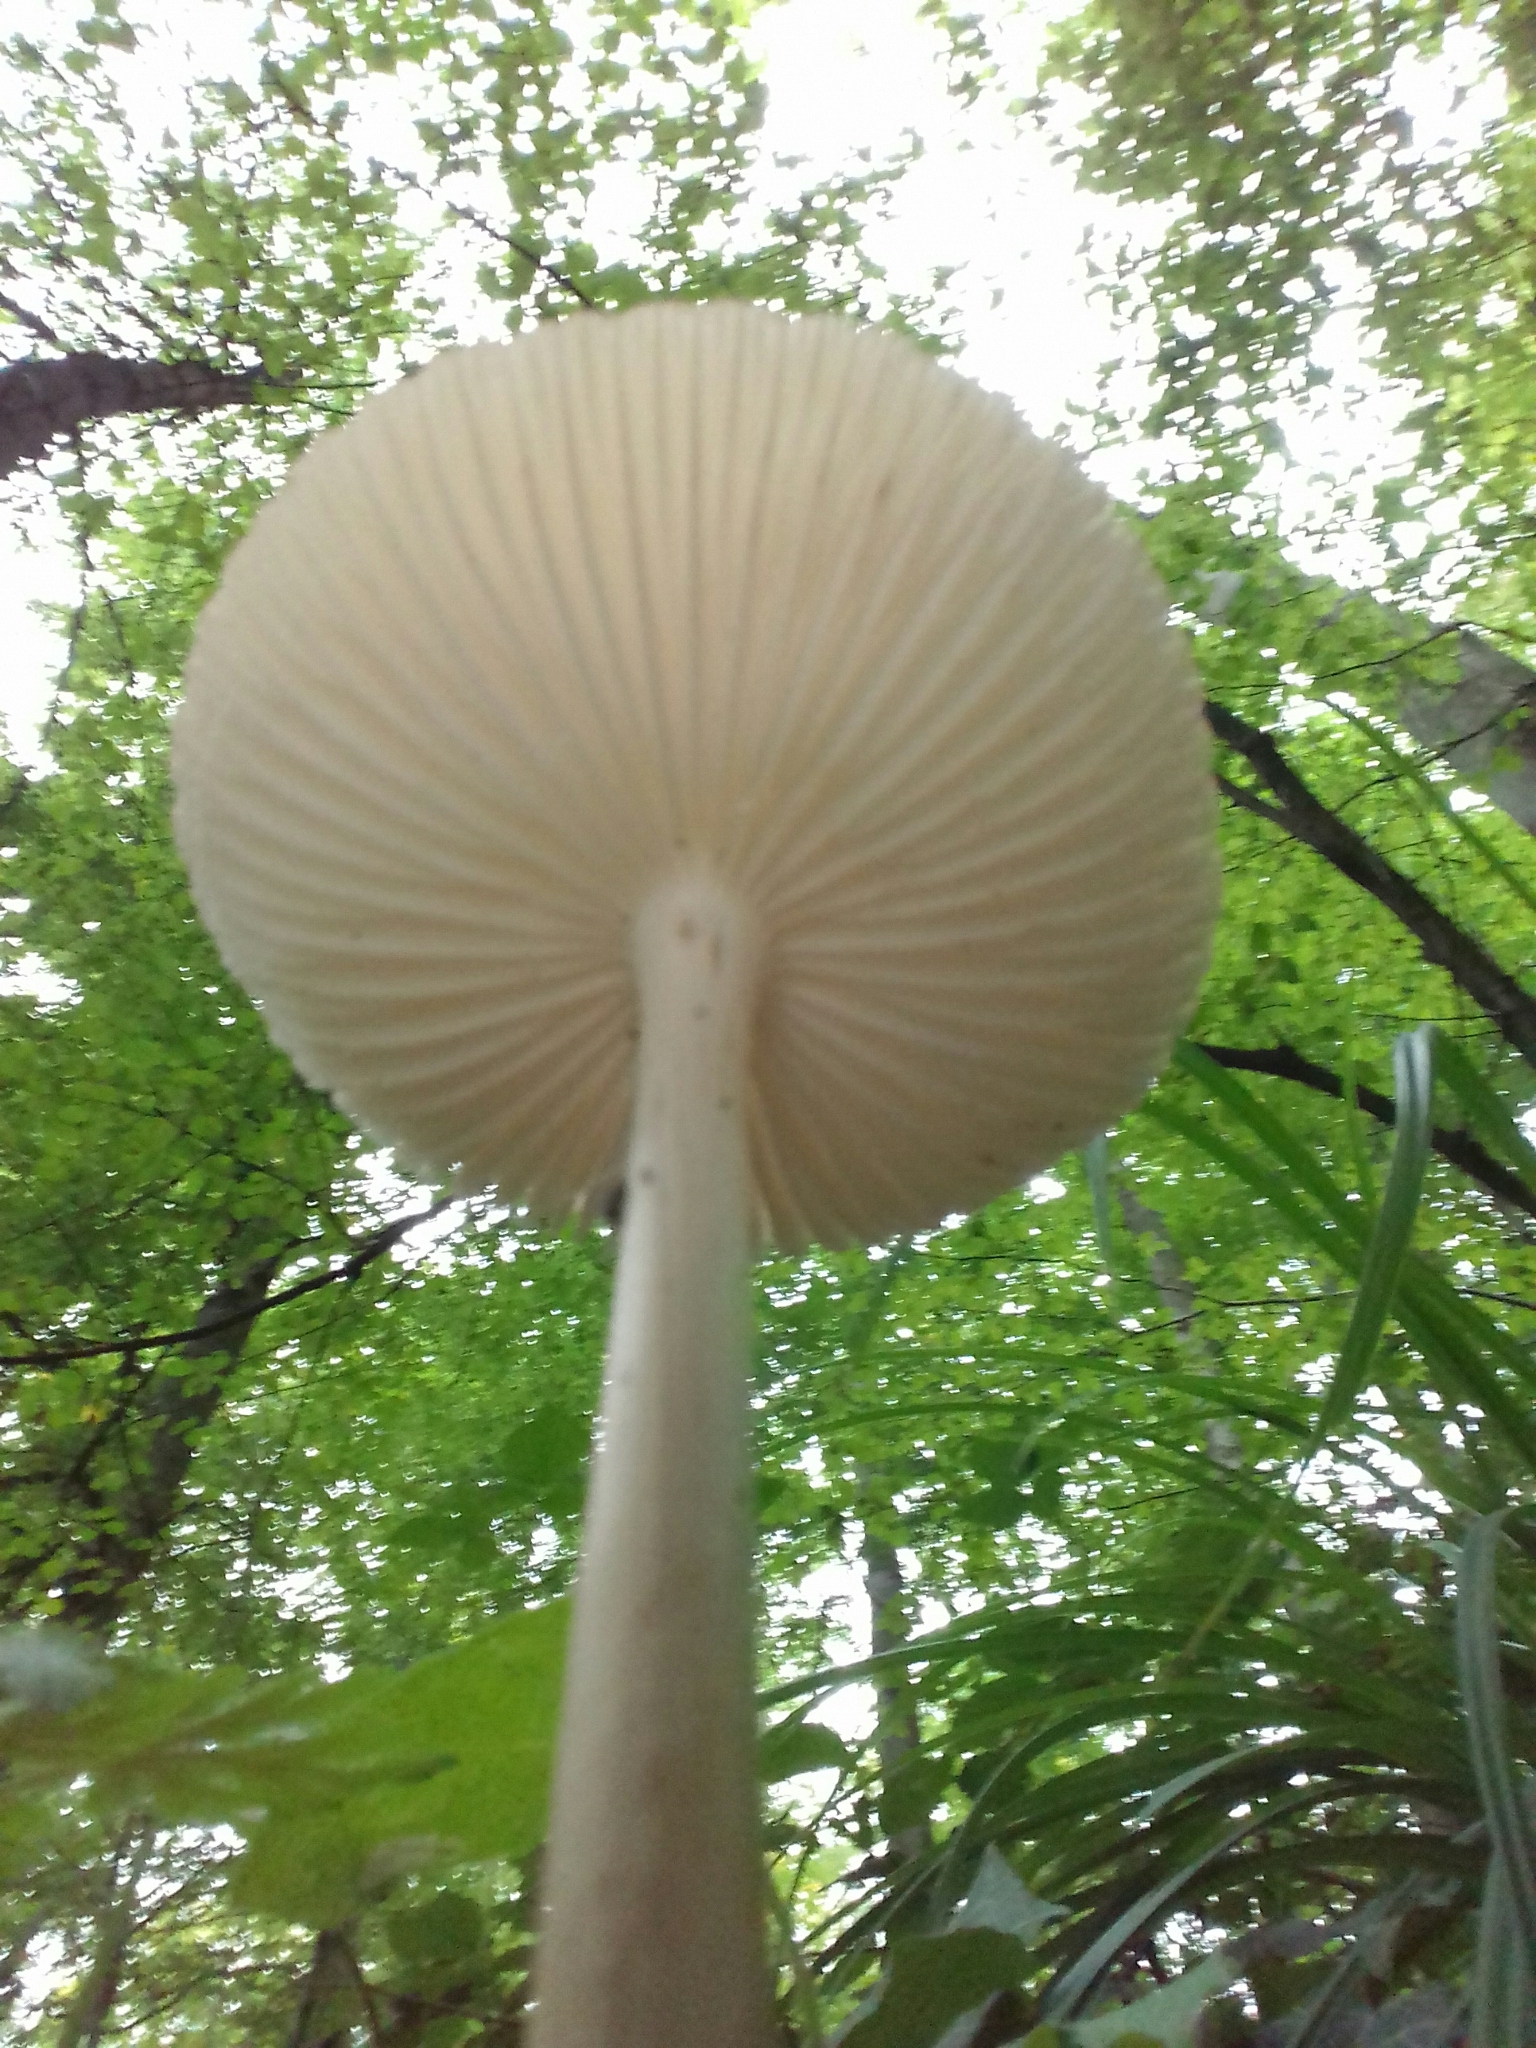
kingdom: Fungi
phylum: Basidiomycota
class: Agaricomycetes
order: Agaricales
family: Physalacriaceae
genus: Hymenopellis
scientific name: Hymenopellis radicata
